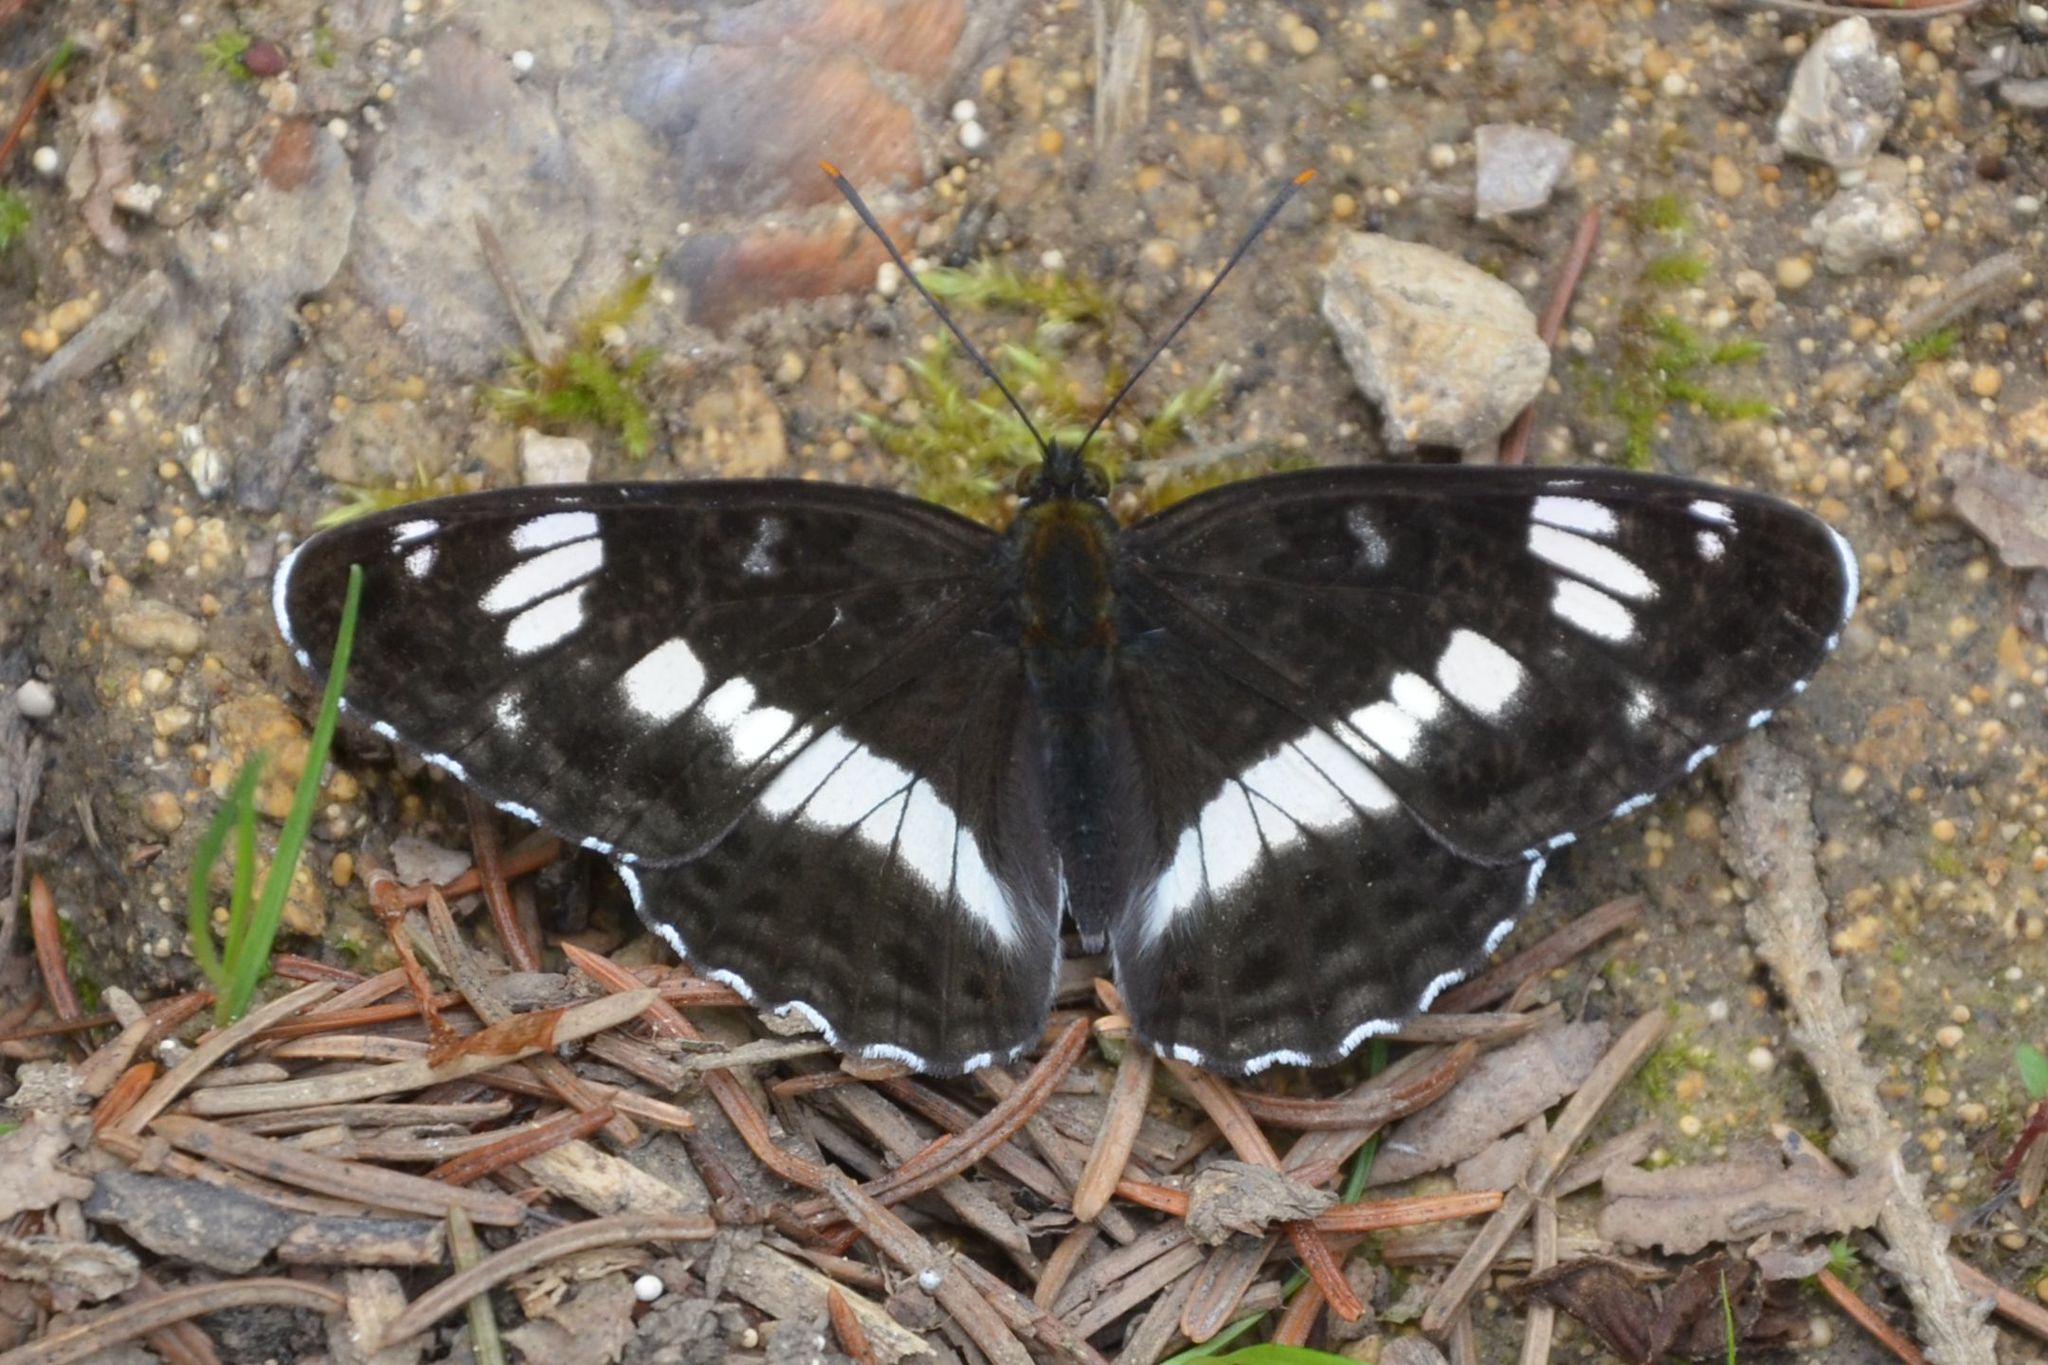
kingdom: Animalia
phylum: Arthropoda
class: Insecta
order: Lepidoptera
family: Nymphalidae
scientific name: Nymphalidae
